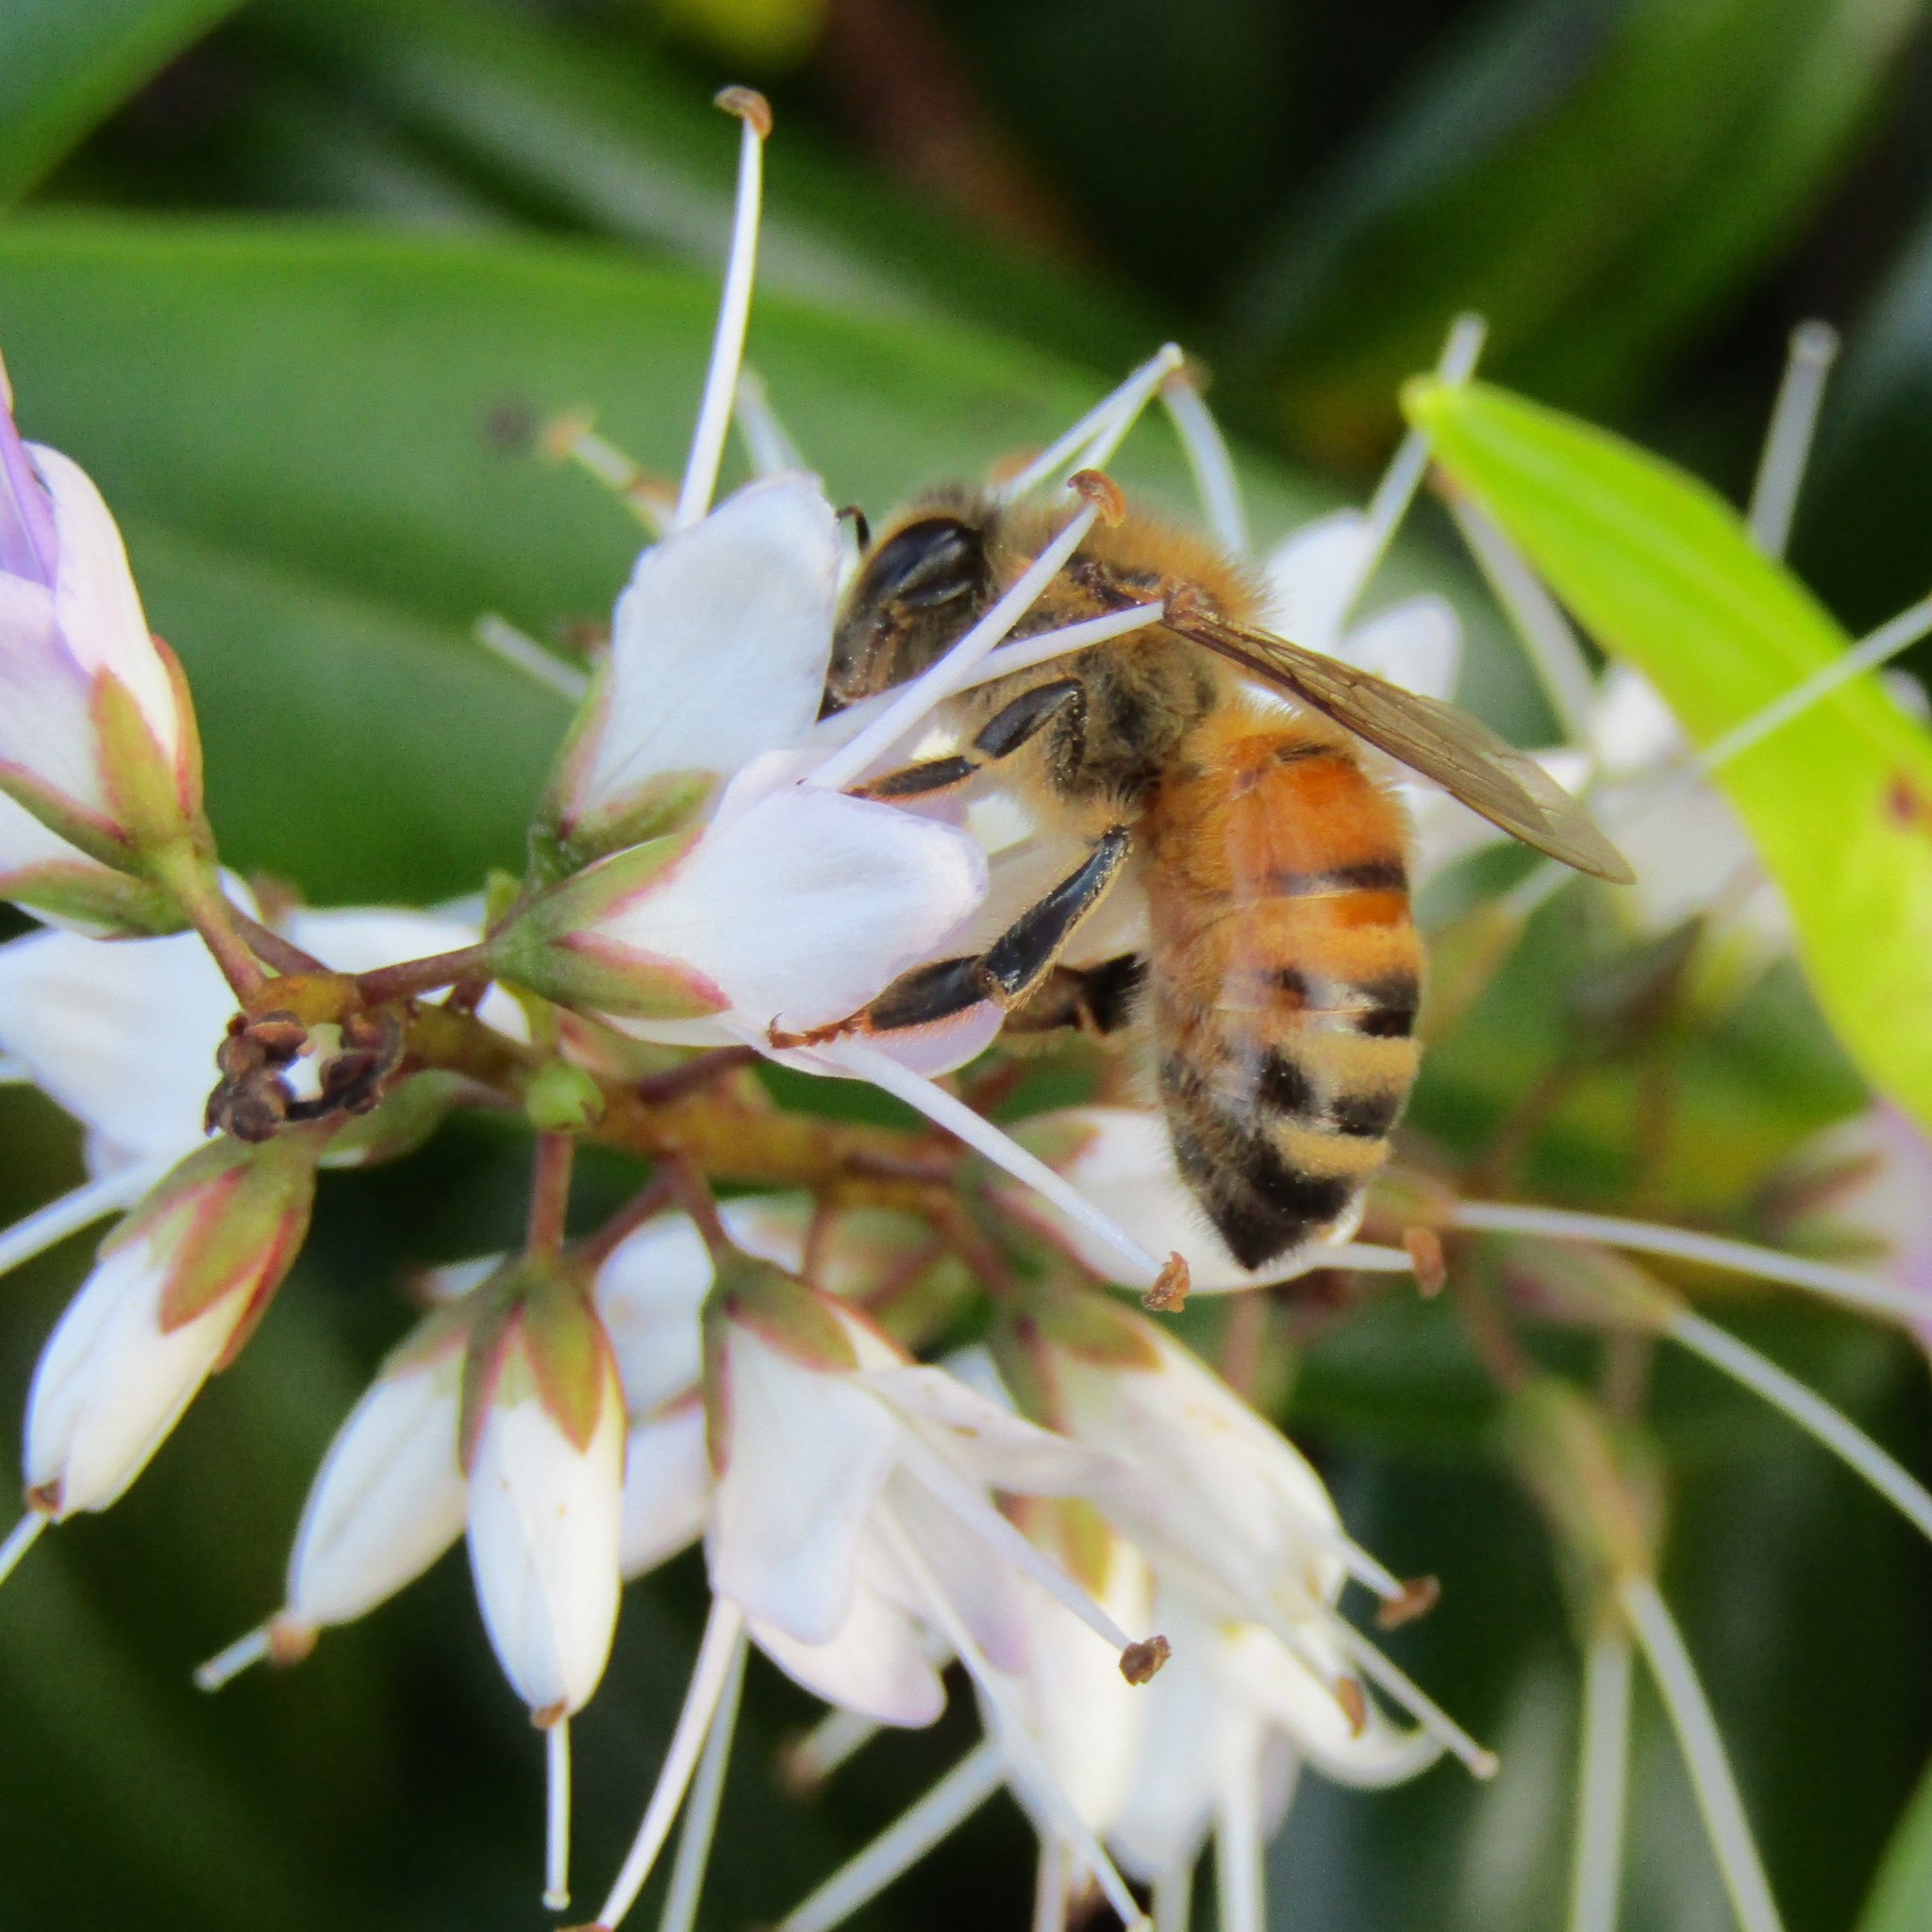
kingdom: Animalia
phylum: Arthropoda
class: Insecta
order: Hymenoptera
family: Apidae
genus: Apis
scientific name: Apis mellifera
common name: Honey bee
